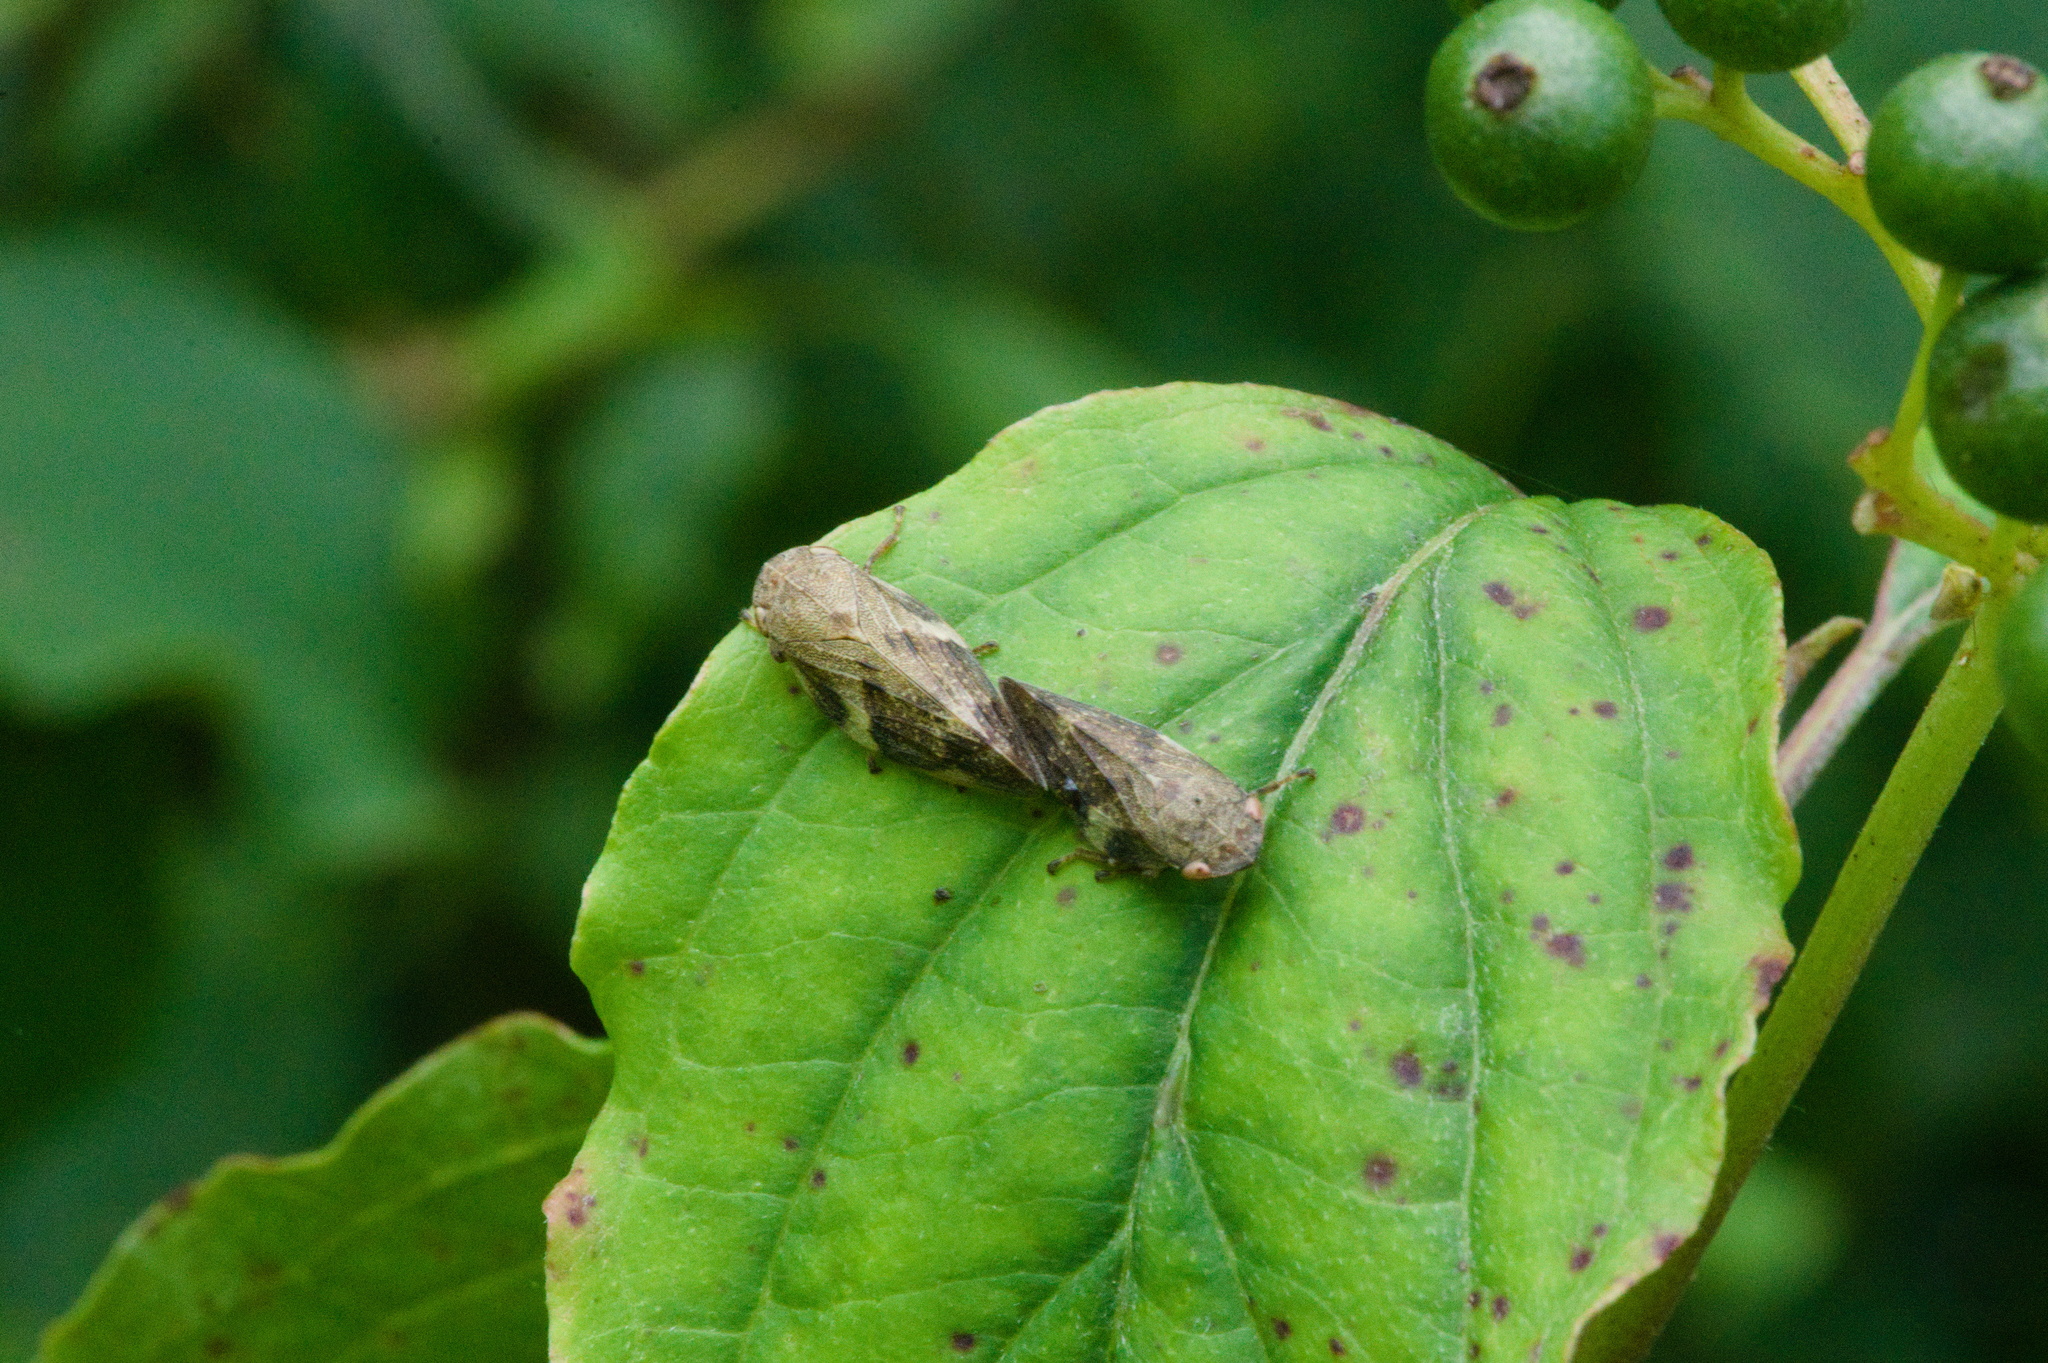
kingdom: Animalia
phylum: Arthropoda
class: Insecta
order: Hemiptera
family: Aphrophoridae
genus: Aphrophora
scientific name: Aphrophora alni
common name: European alder spittlebug
